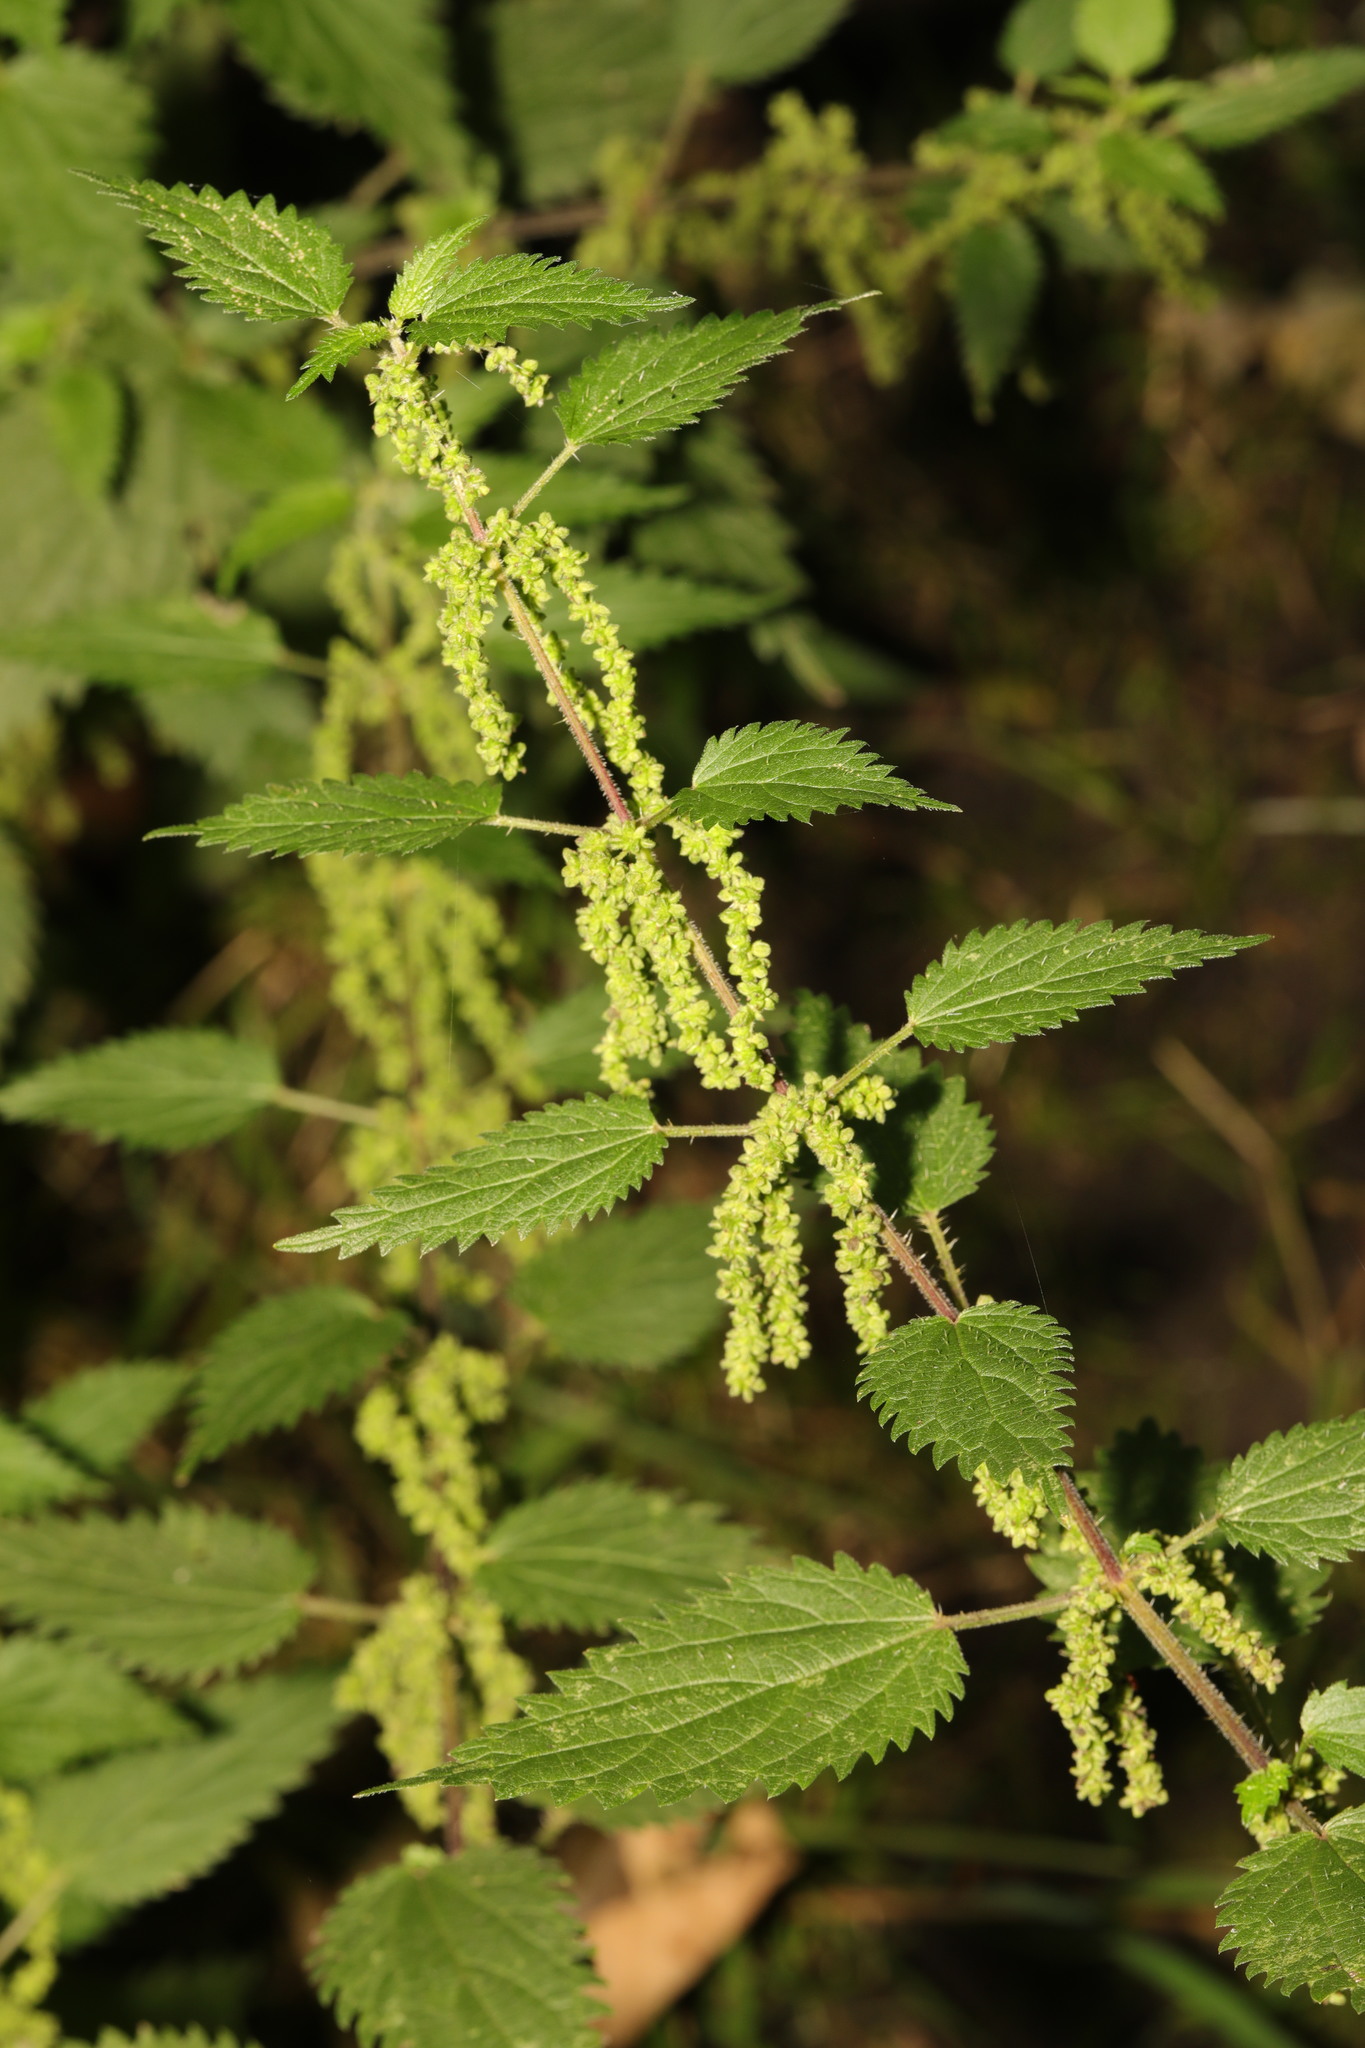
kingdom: Plantae
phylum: Tracheophyta
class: Magnoliopsida
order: Rosales
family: Urticaceae
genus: Urtica
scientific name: Urtica dioica
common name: Common nettle
